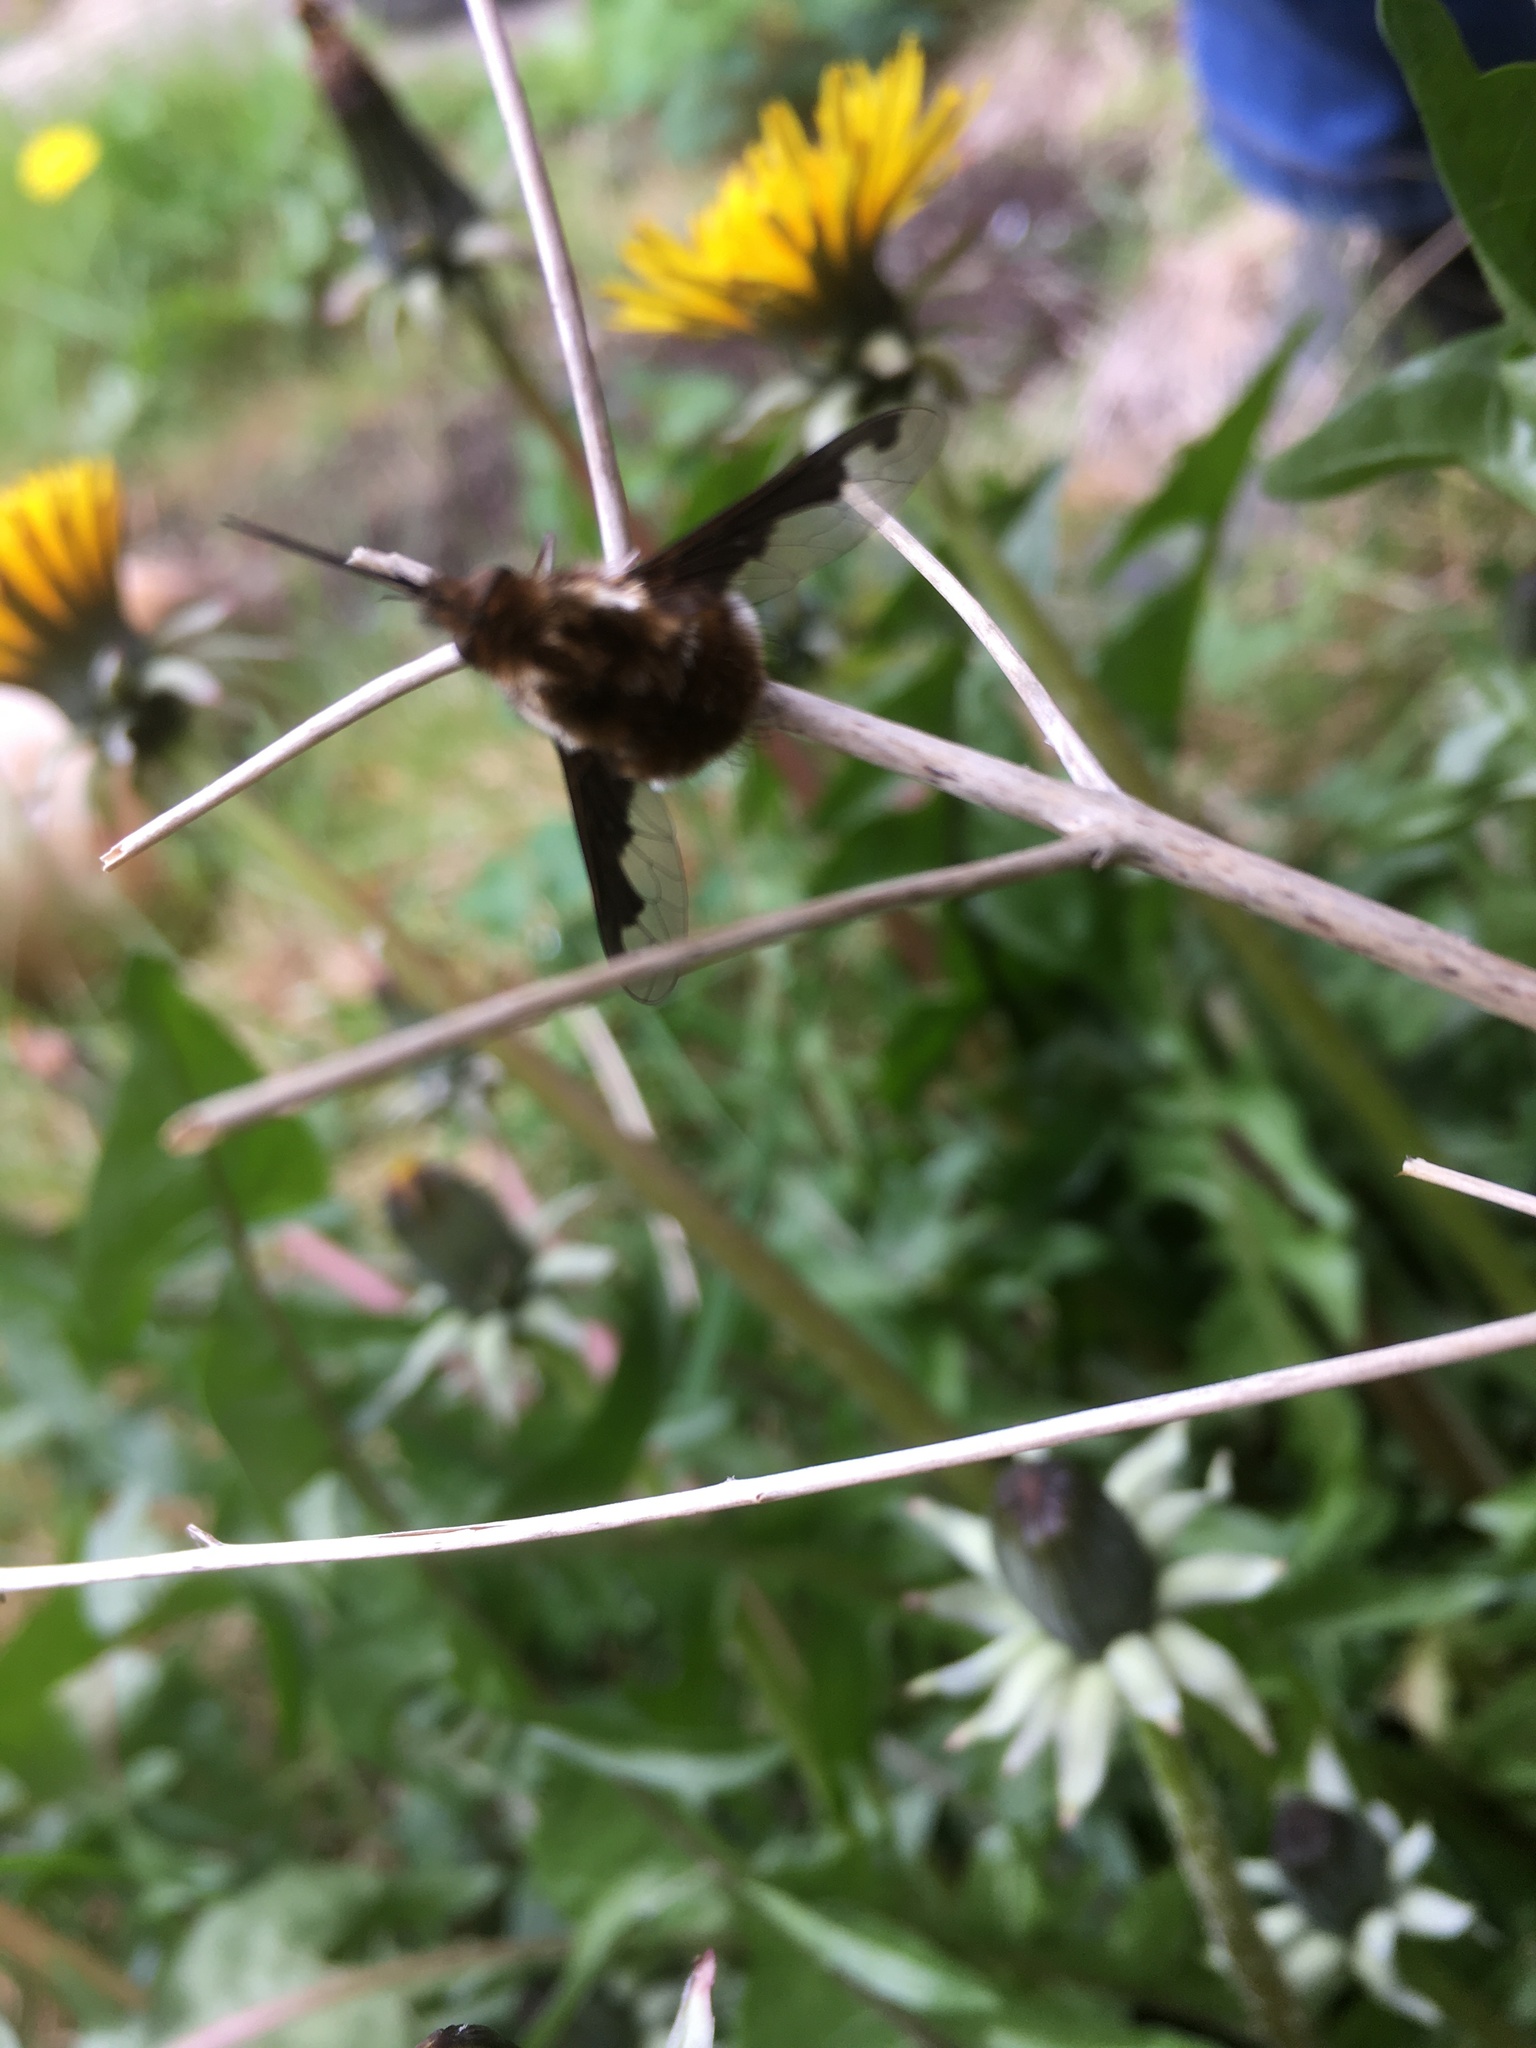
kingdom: Animalia
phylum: Arthropoda
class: Insecta
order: Diptera
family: Bombyliidae
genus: Bombylius
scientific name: Bombylius major
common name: Bee fly
